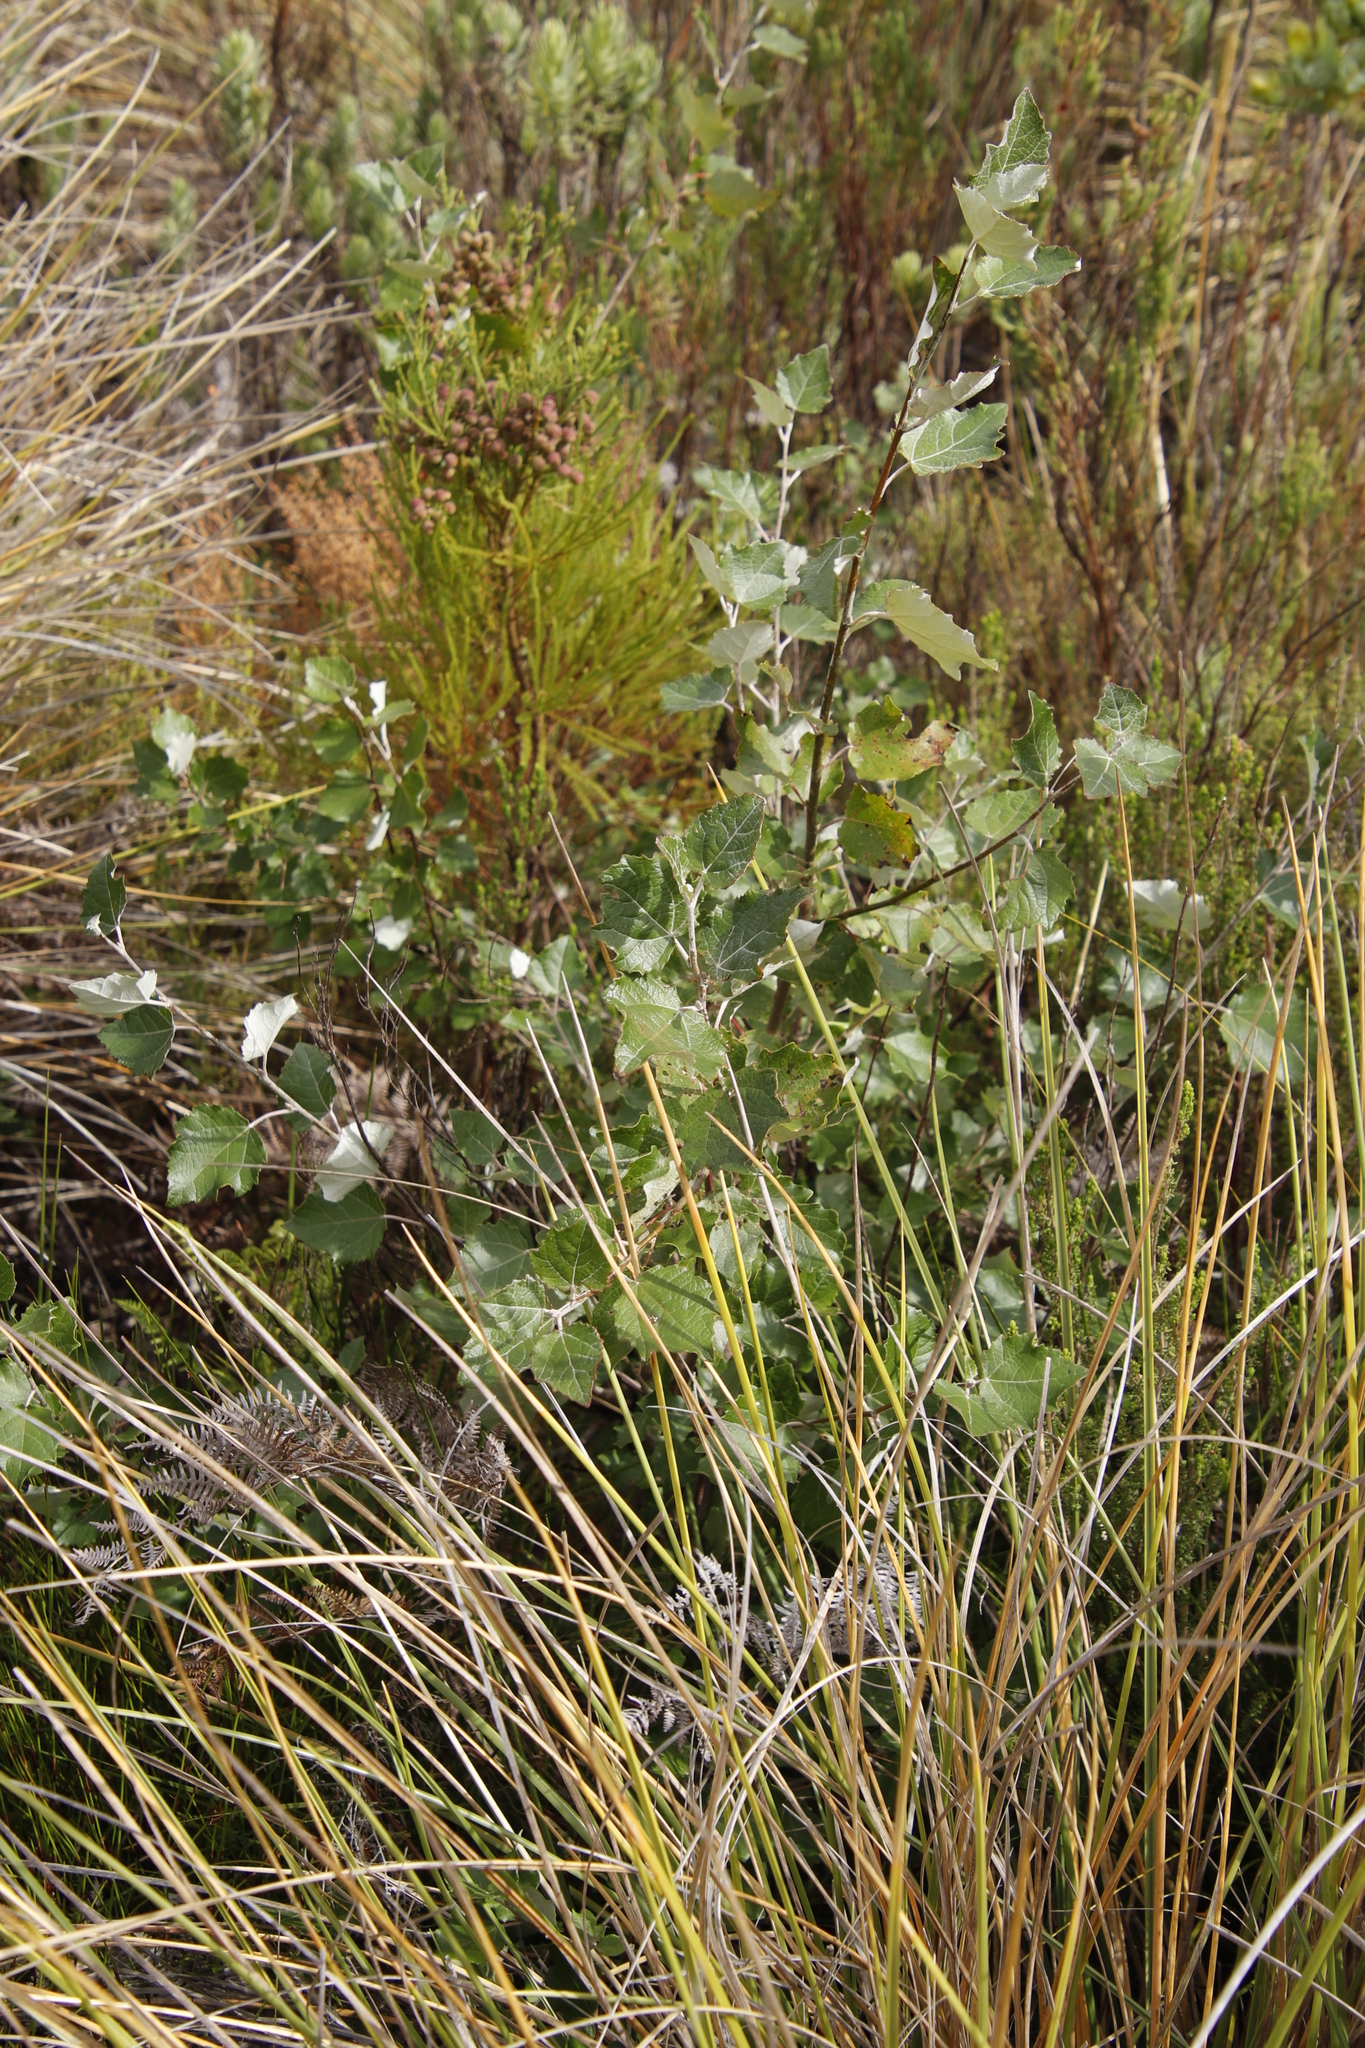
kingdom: Plantae
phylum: Tracheophyta
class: Magnoliopsida
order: Malpighiales
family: Salicaceae
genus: Populus
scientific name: Populus canescens
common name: Gray poplar
